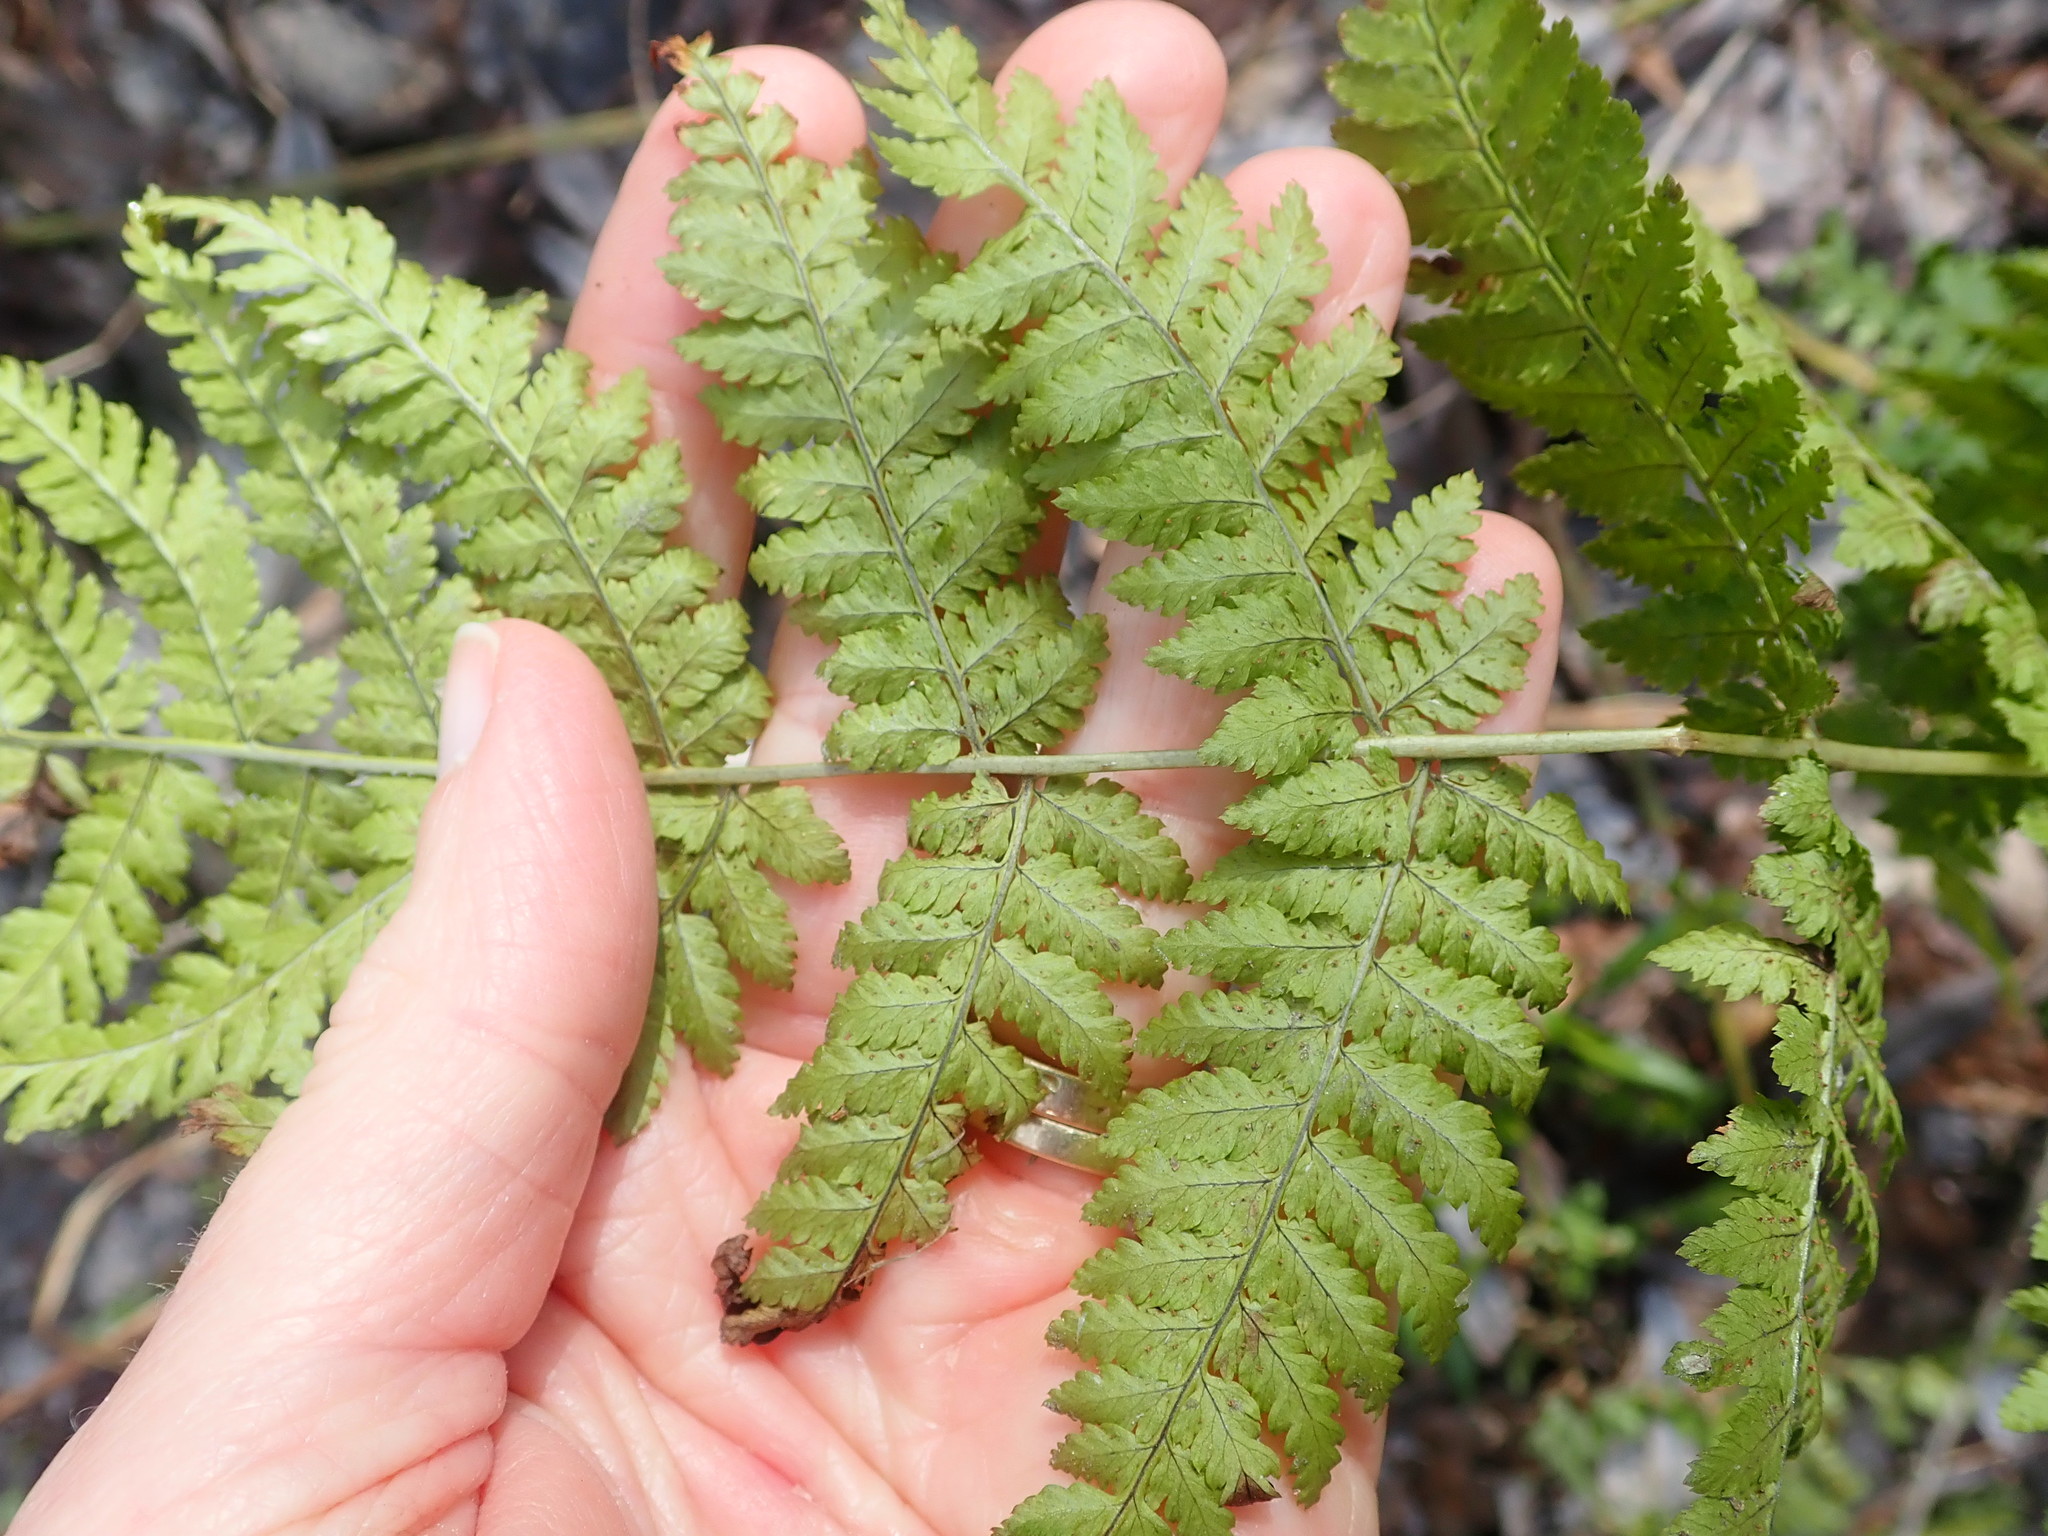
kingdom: Plantae
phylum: Tracheophyta
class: Polypodiopsida
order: Polypodiales
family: Dryopteridaceae
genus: Dryopteris
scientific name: Dryopteris intermedia
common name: Evergreen wood fern
